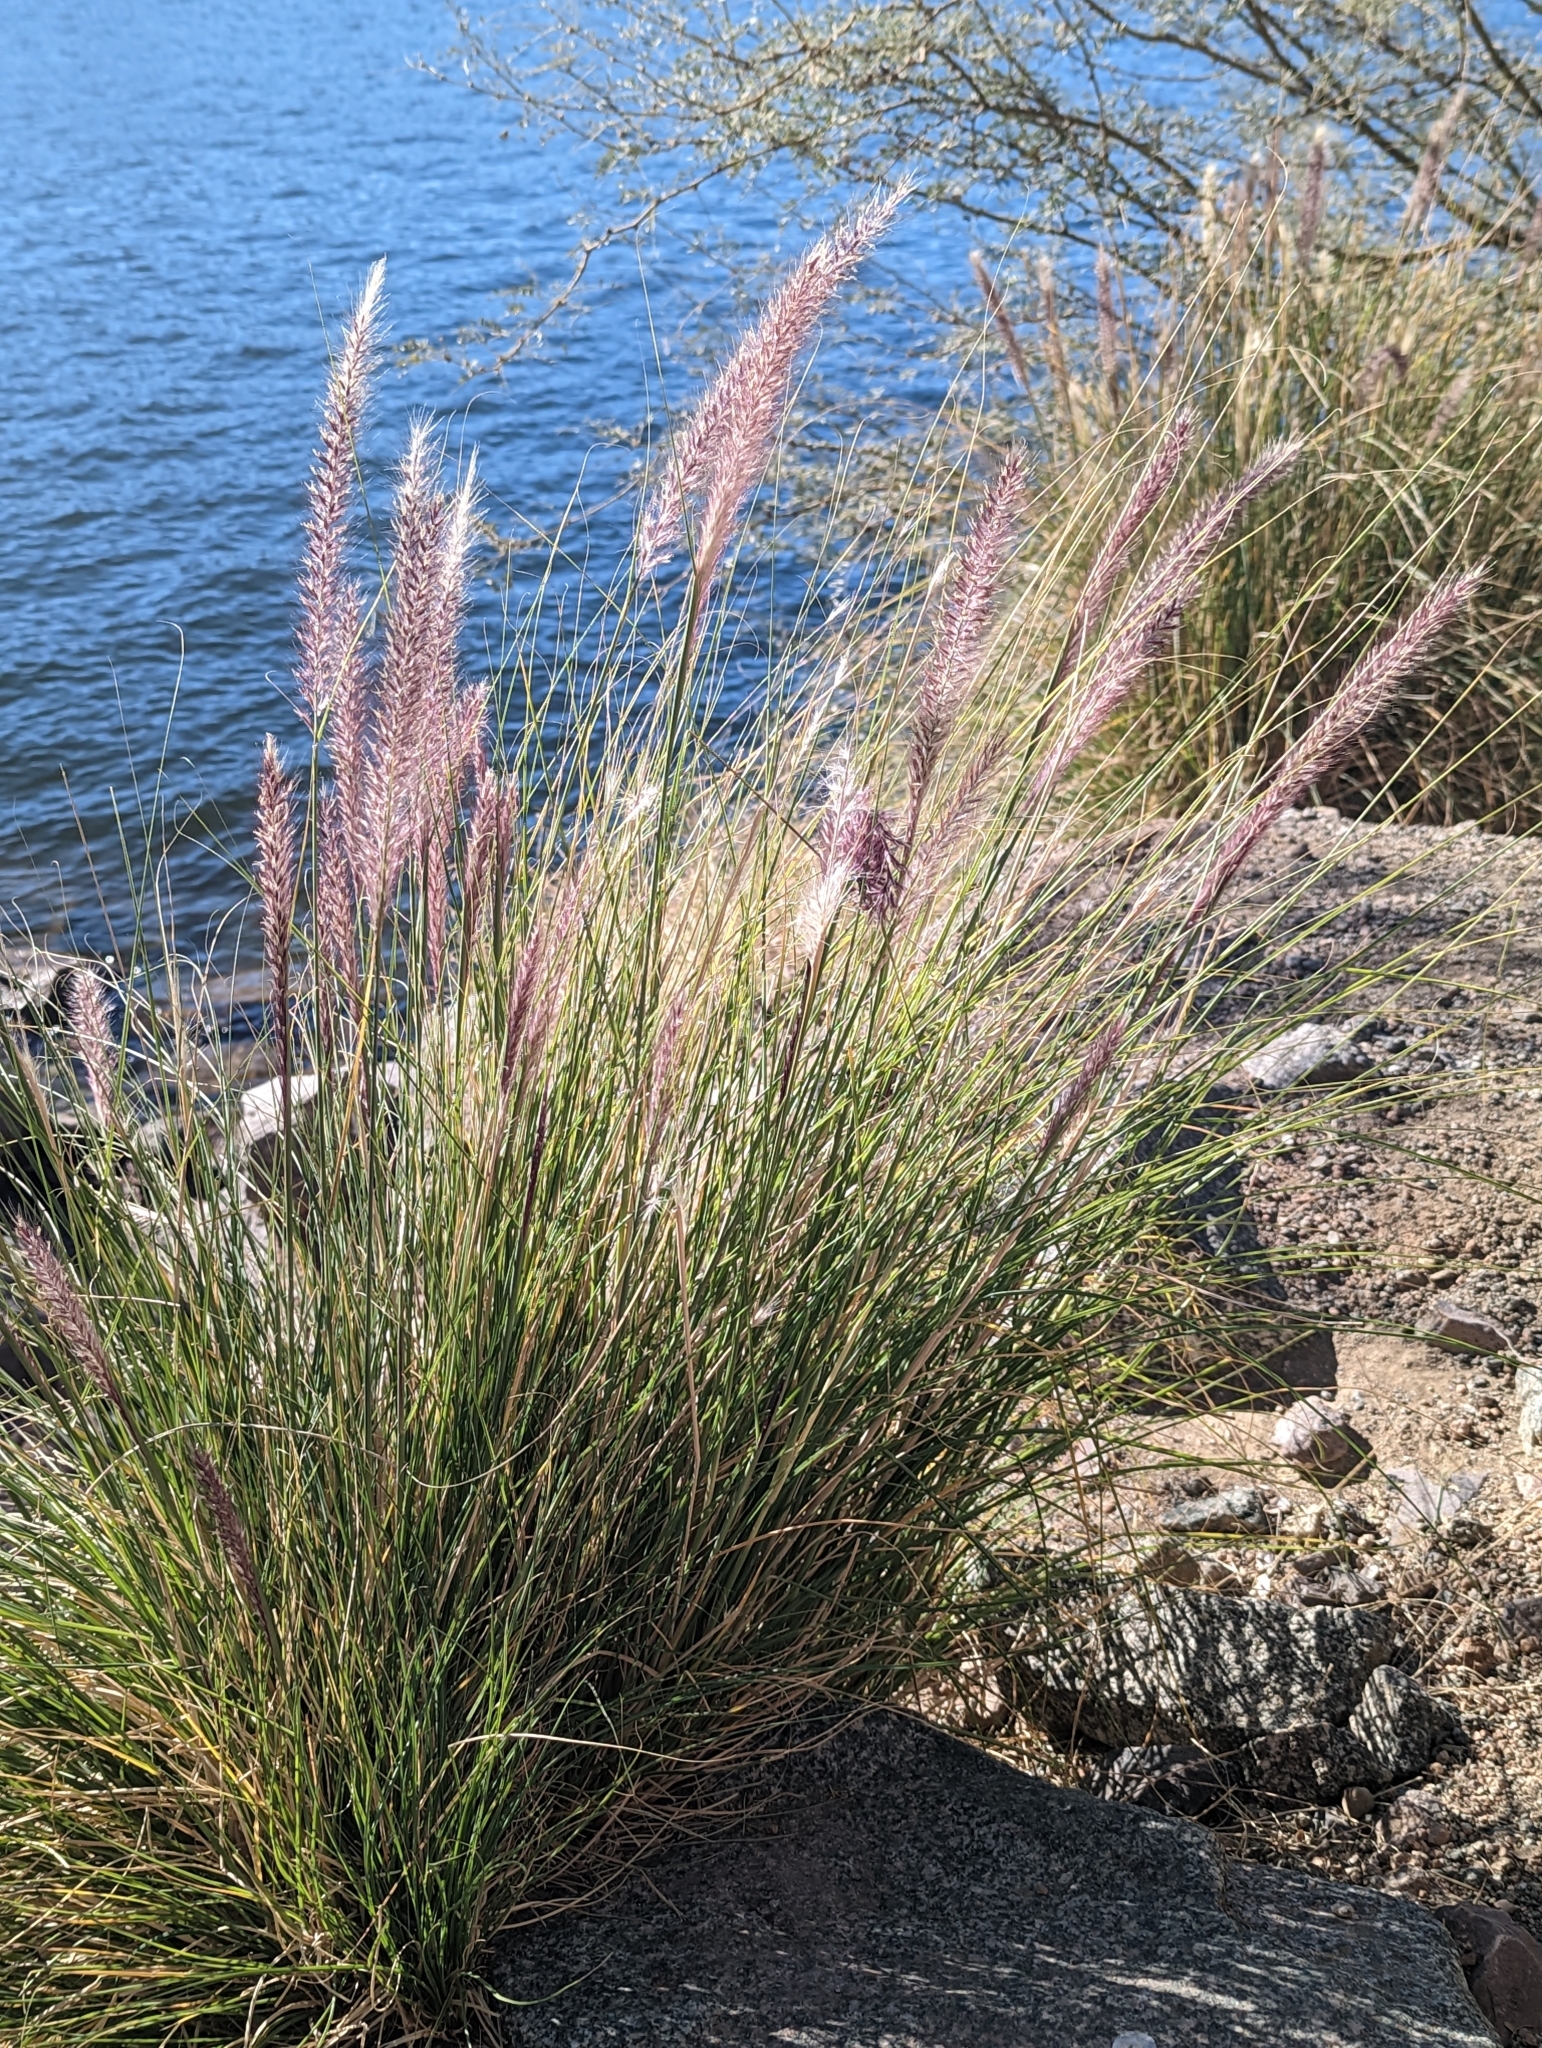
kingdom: Plantae
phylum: Tracheophyta
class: Liliopsida
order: Poales
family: Poaceae
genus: Cenchrus
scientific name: Cenchrus setaceus
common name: Crimson fountaingrass
